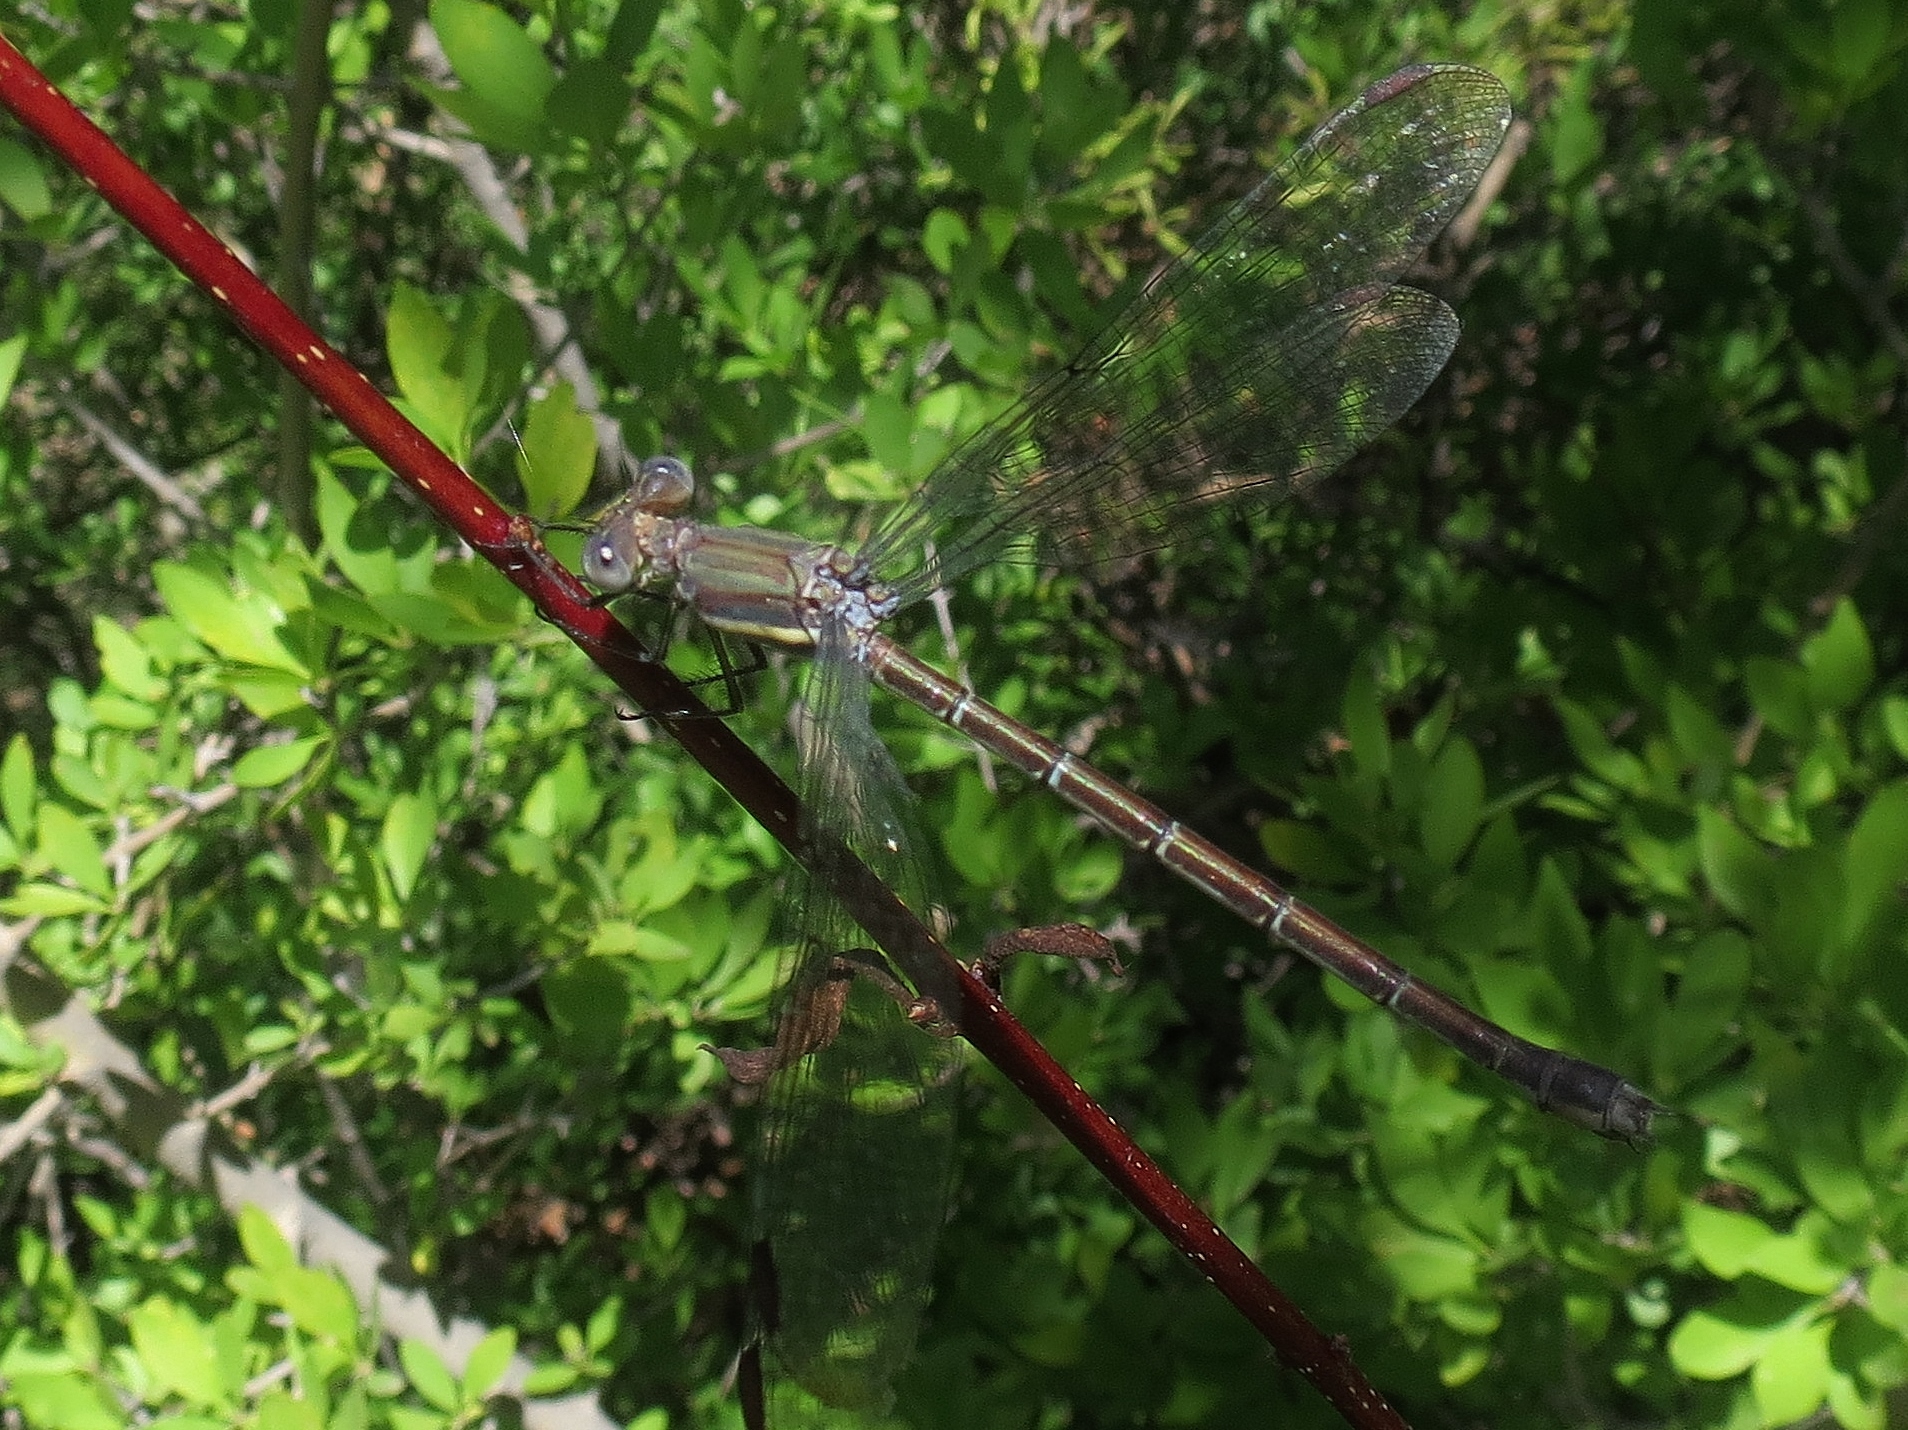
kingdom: Animalia
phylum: Arthropoda
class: Insecta
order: Odonata
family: Lestidae
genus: Archilestes
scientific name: Archilestes grandis
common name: Great spreadwing
